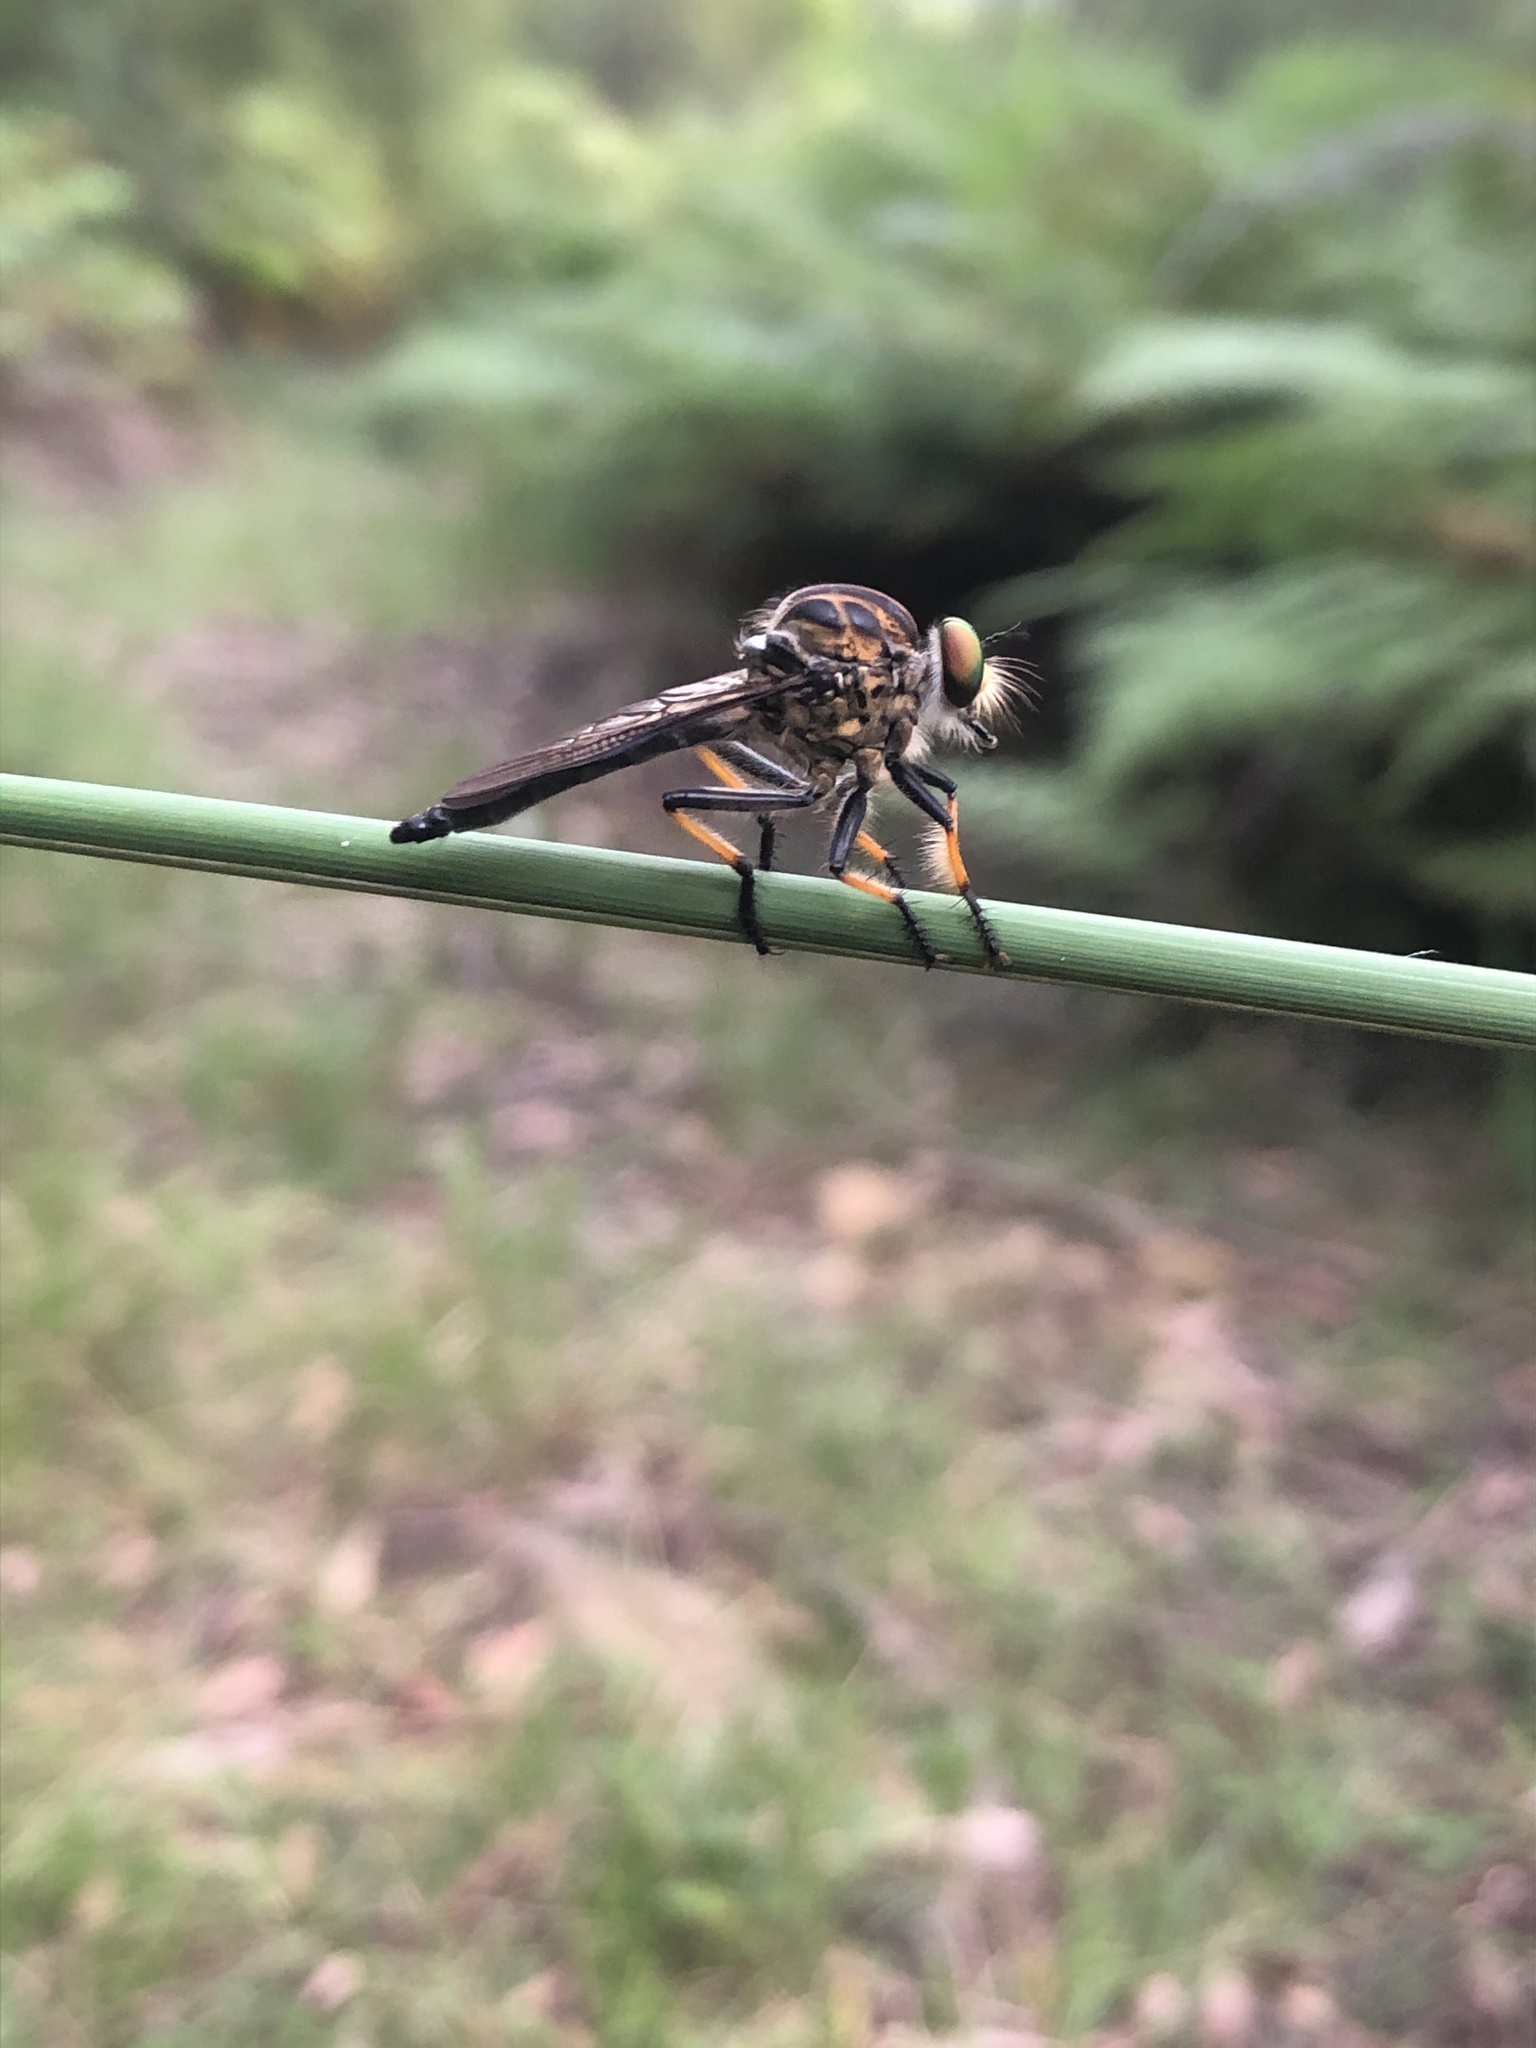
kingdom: Animalia
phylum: Arthropoda
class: Insecta
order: Diptera
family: Asilidae
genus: Ommatius
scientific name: Ommatius coeraebus
